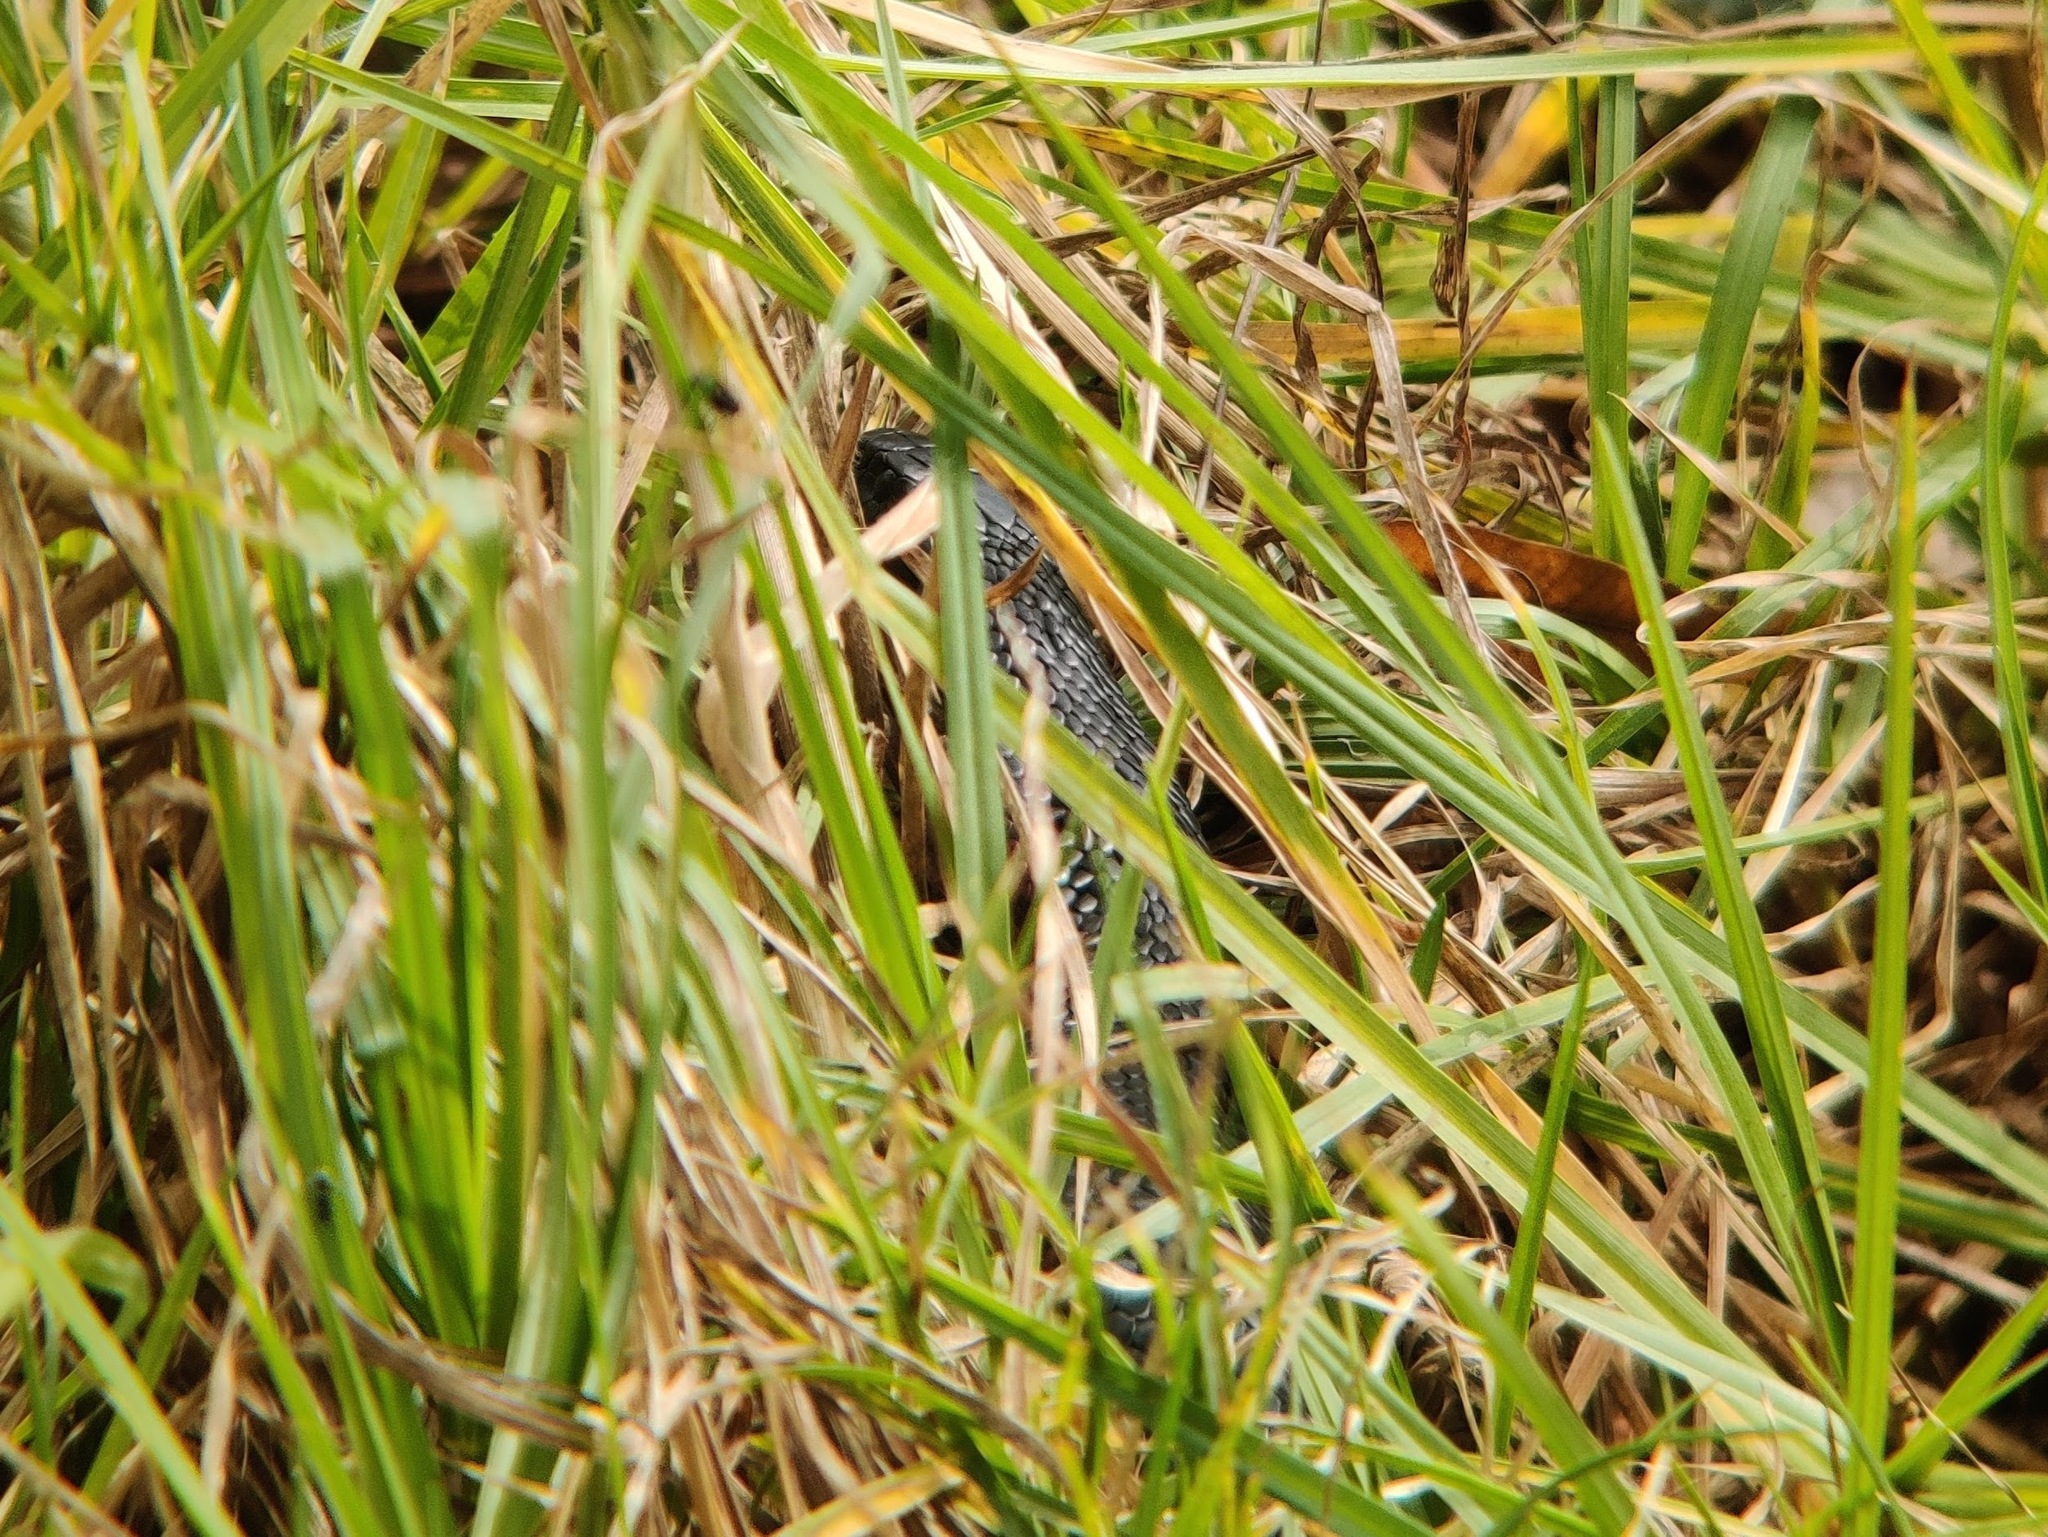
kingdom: Animalia
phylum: Chordata
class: Squamata
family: Elapidae
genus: Pseudechis
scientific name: Pseudechis porphyriacus
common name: Australian black snake
